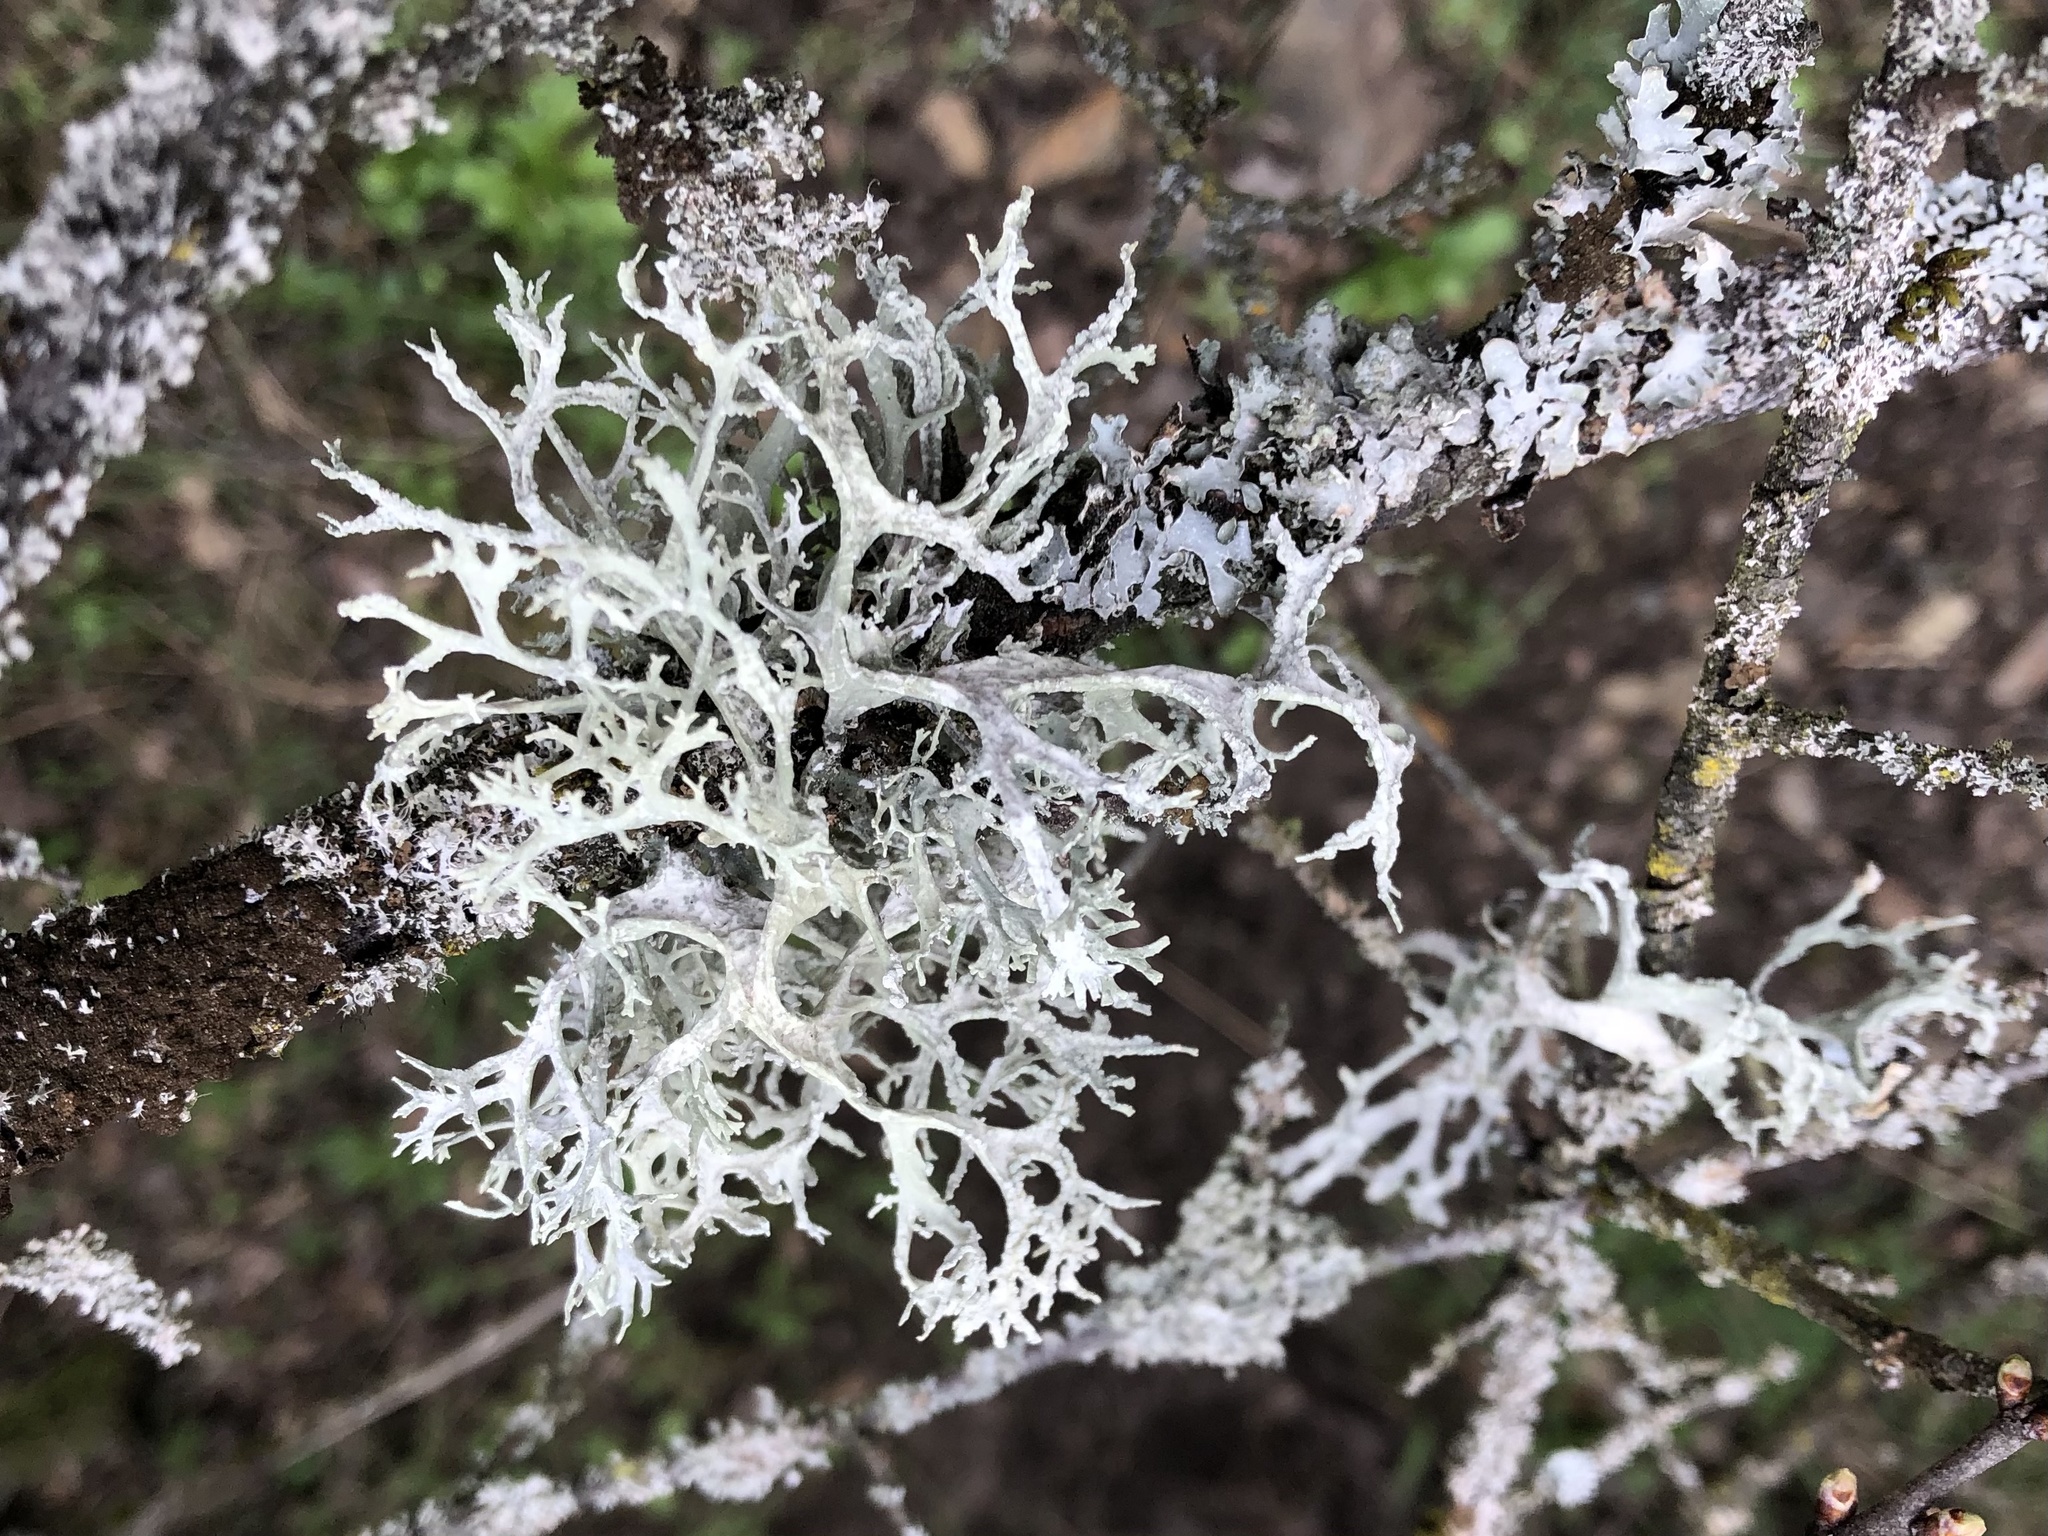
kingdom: Fungi
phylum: Ascomycota
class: Lecanoromycetes
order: Lecanorales
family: Parmeliaceae
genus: Evernia
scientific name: Evernia prunastri
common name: Oak moss
